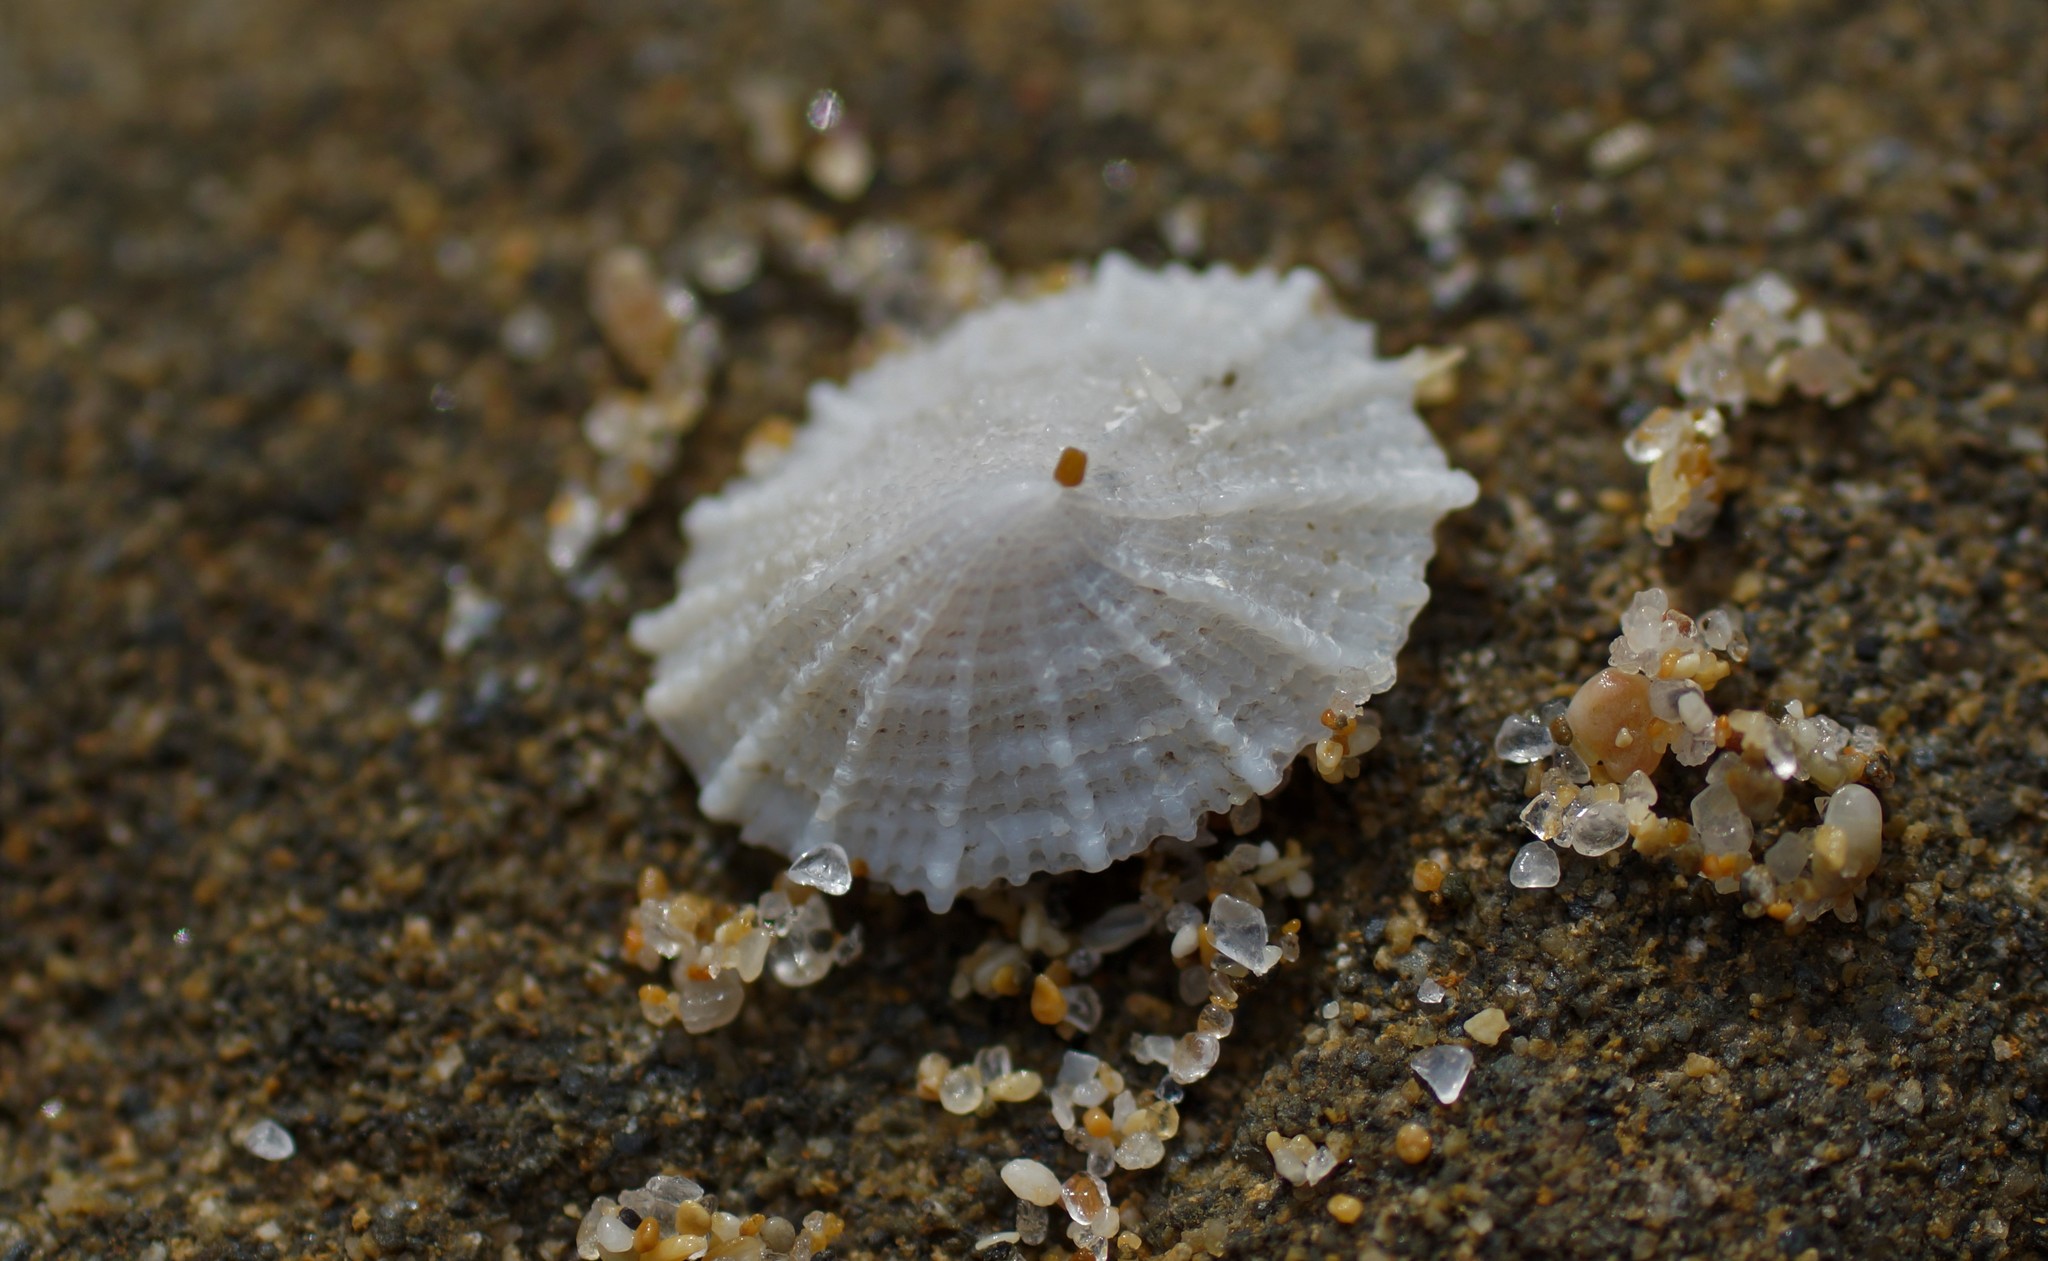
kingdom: Animalia
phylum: Mollusca
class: Gastropoda
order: Lepetellida
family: Fissurellidae
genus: Montfortula
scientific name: Montfortula rugosa
